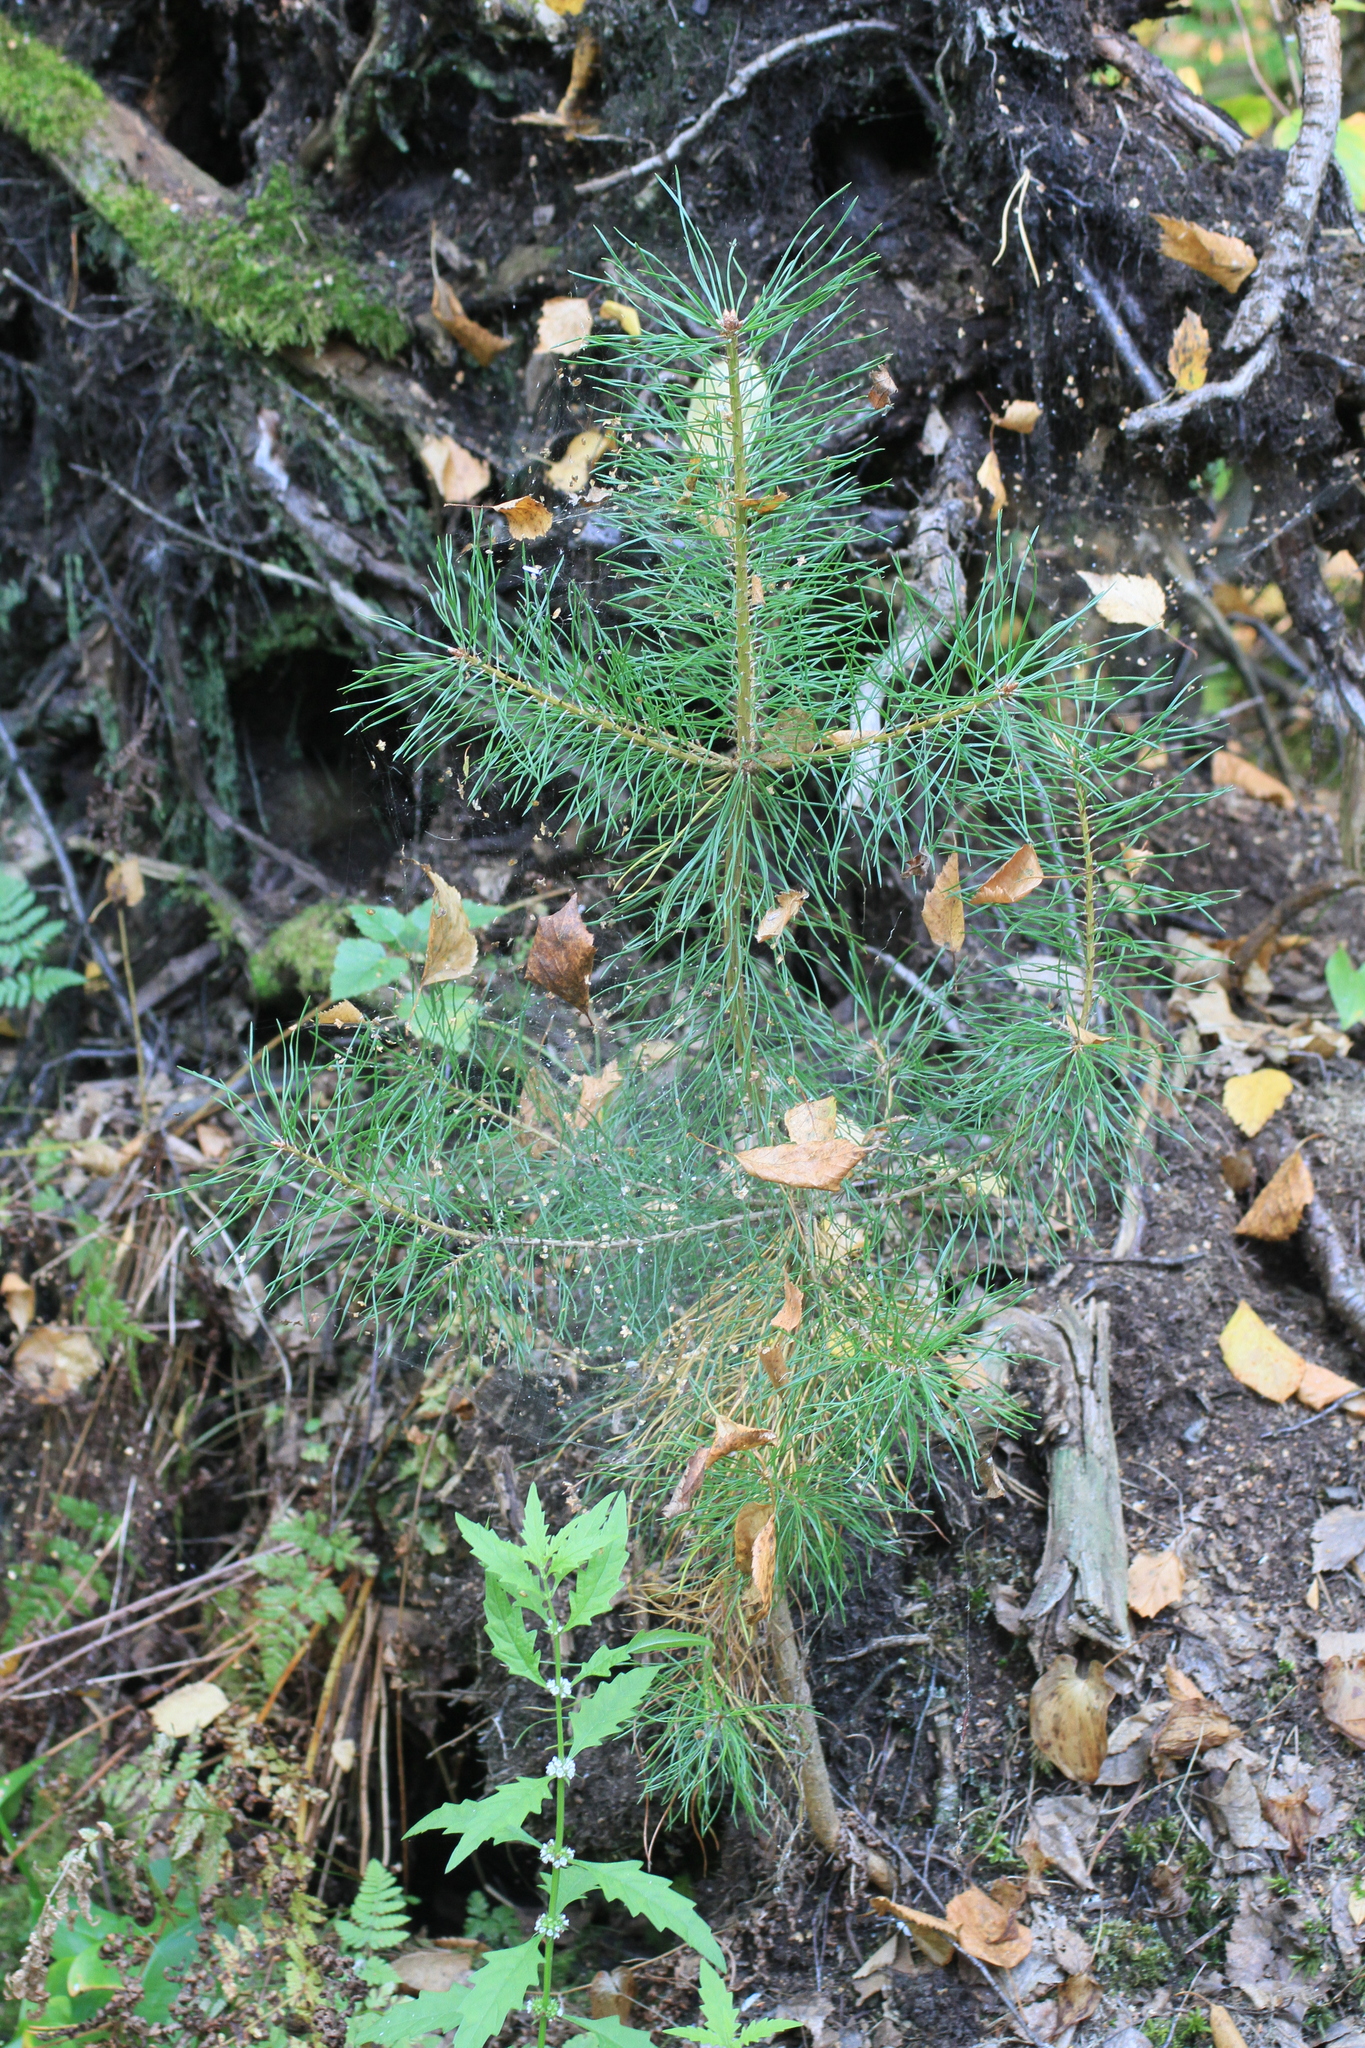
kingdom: Plantae
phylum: Tracheophyta
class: Pinopsida
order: Pinales
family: Pinaceae
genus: Pinus
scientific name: Pinus sylvestris
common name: Scots pine
